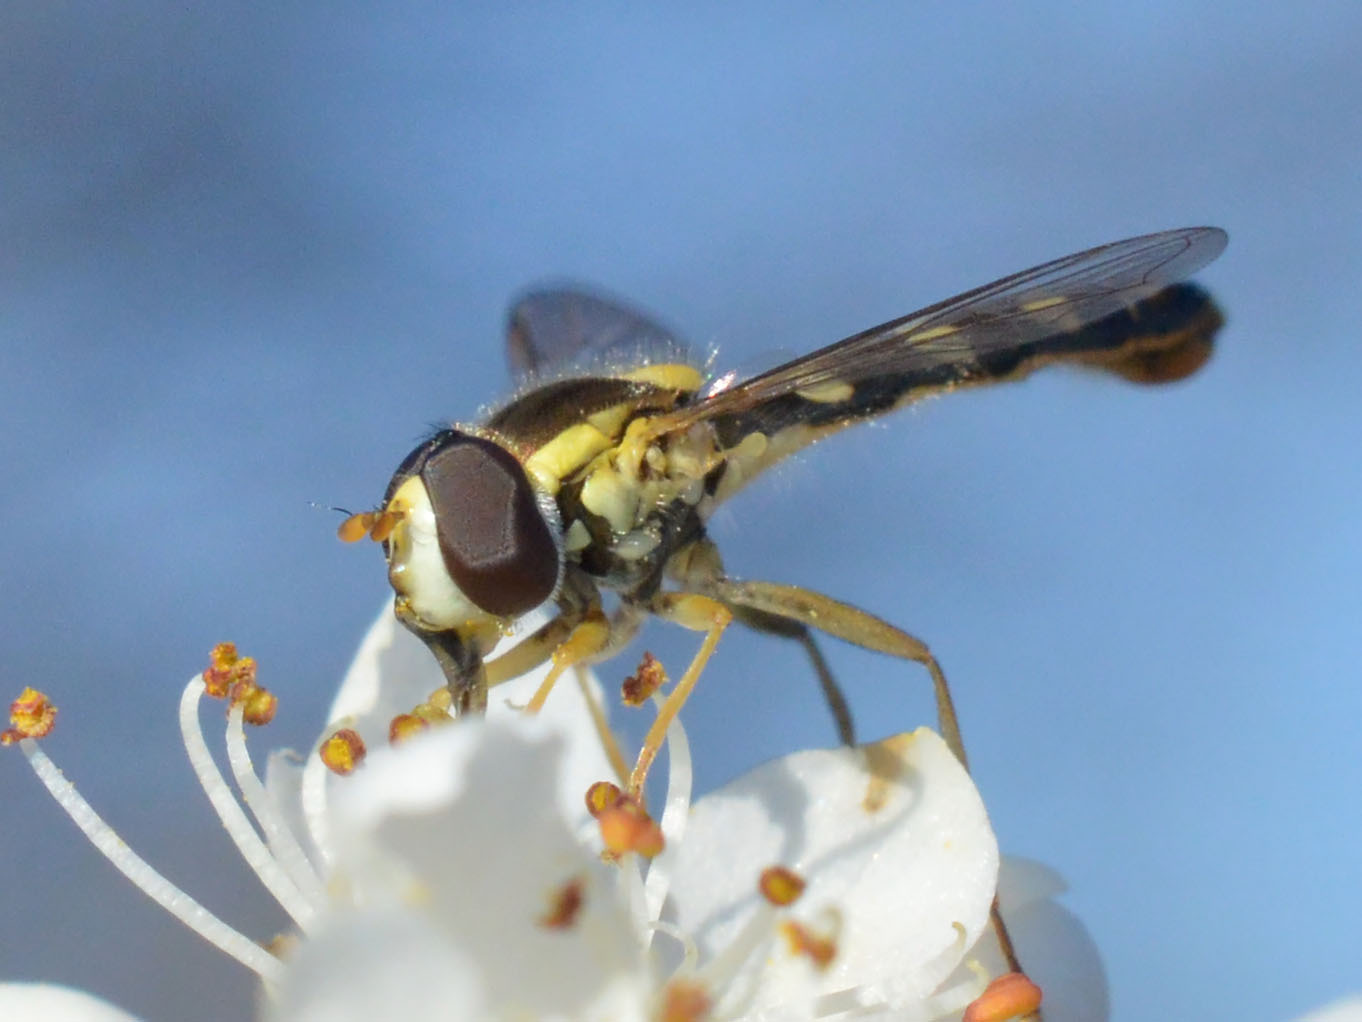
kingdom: Animalia
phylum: Arthropoda
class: Insecta
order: Diptera
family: Syrphidae
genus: Sphaerophoria
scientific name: Sphaerophoria scripta
